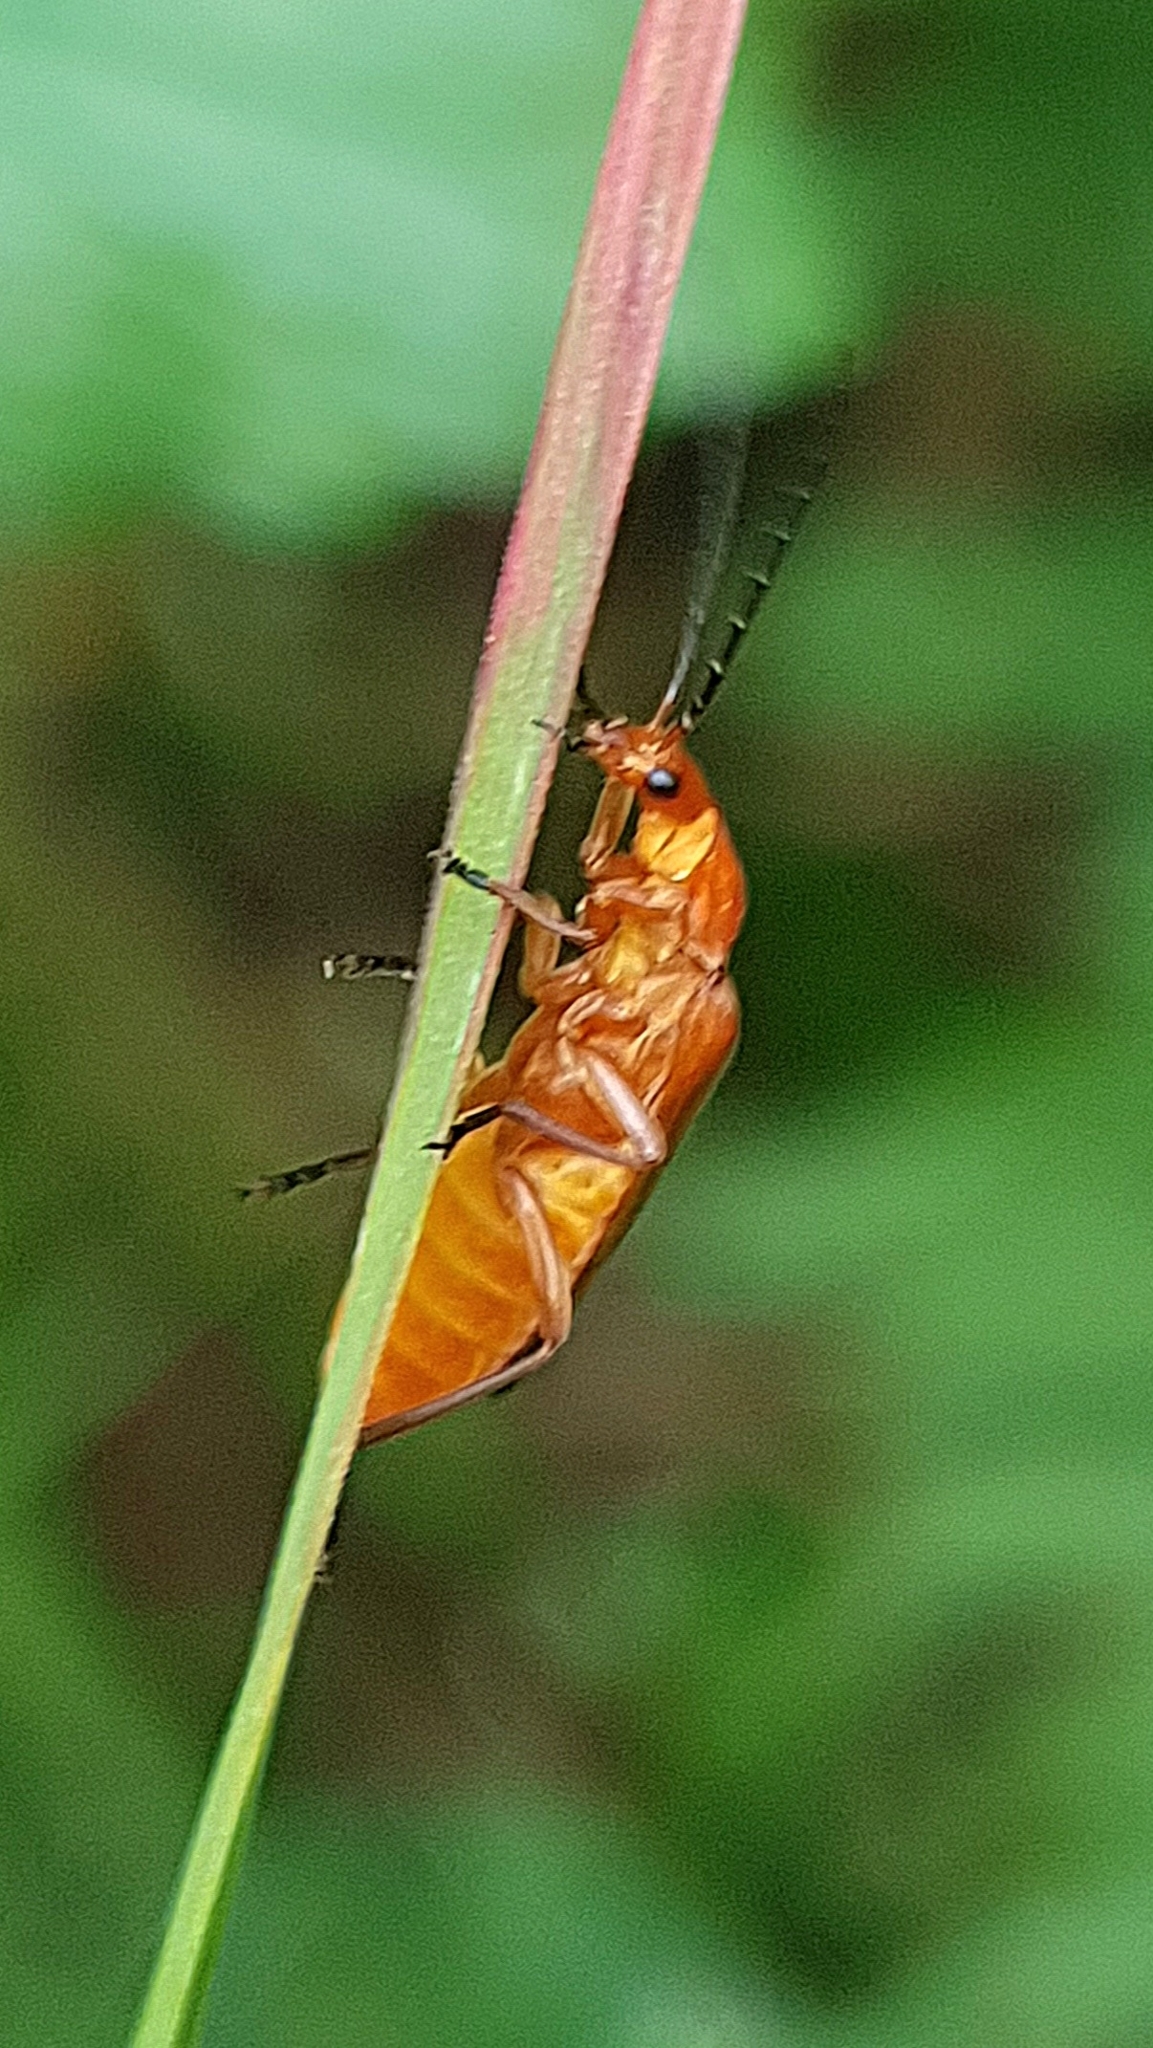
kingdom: Animalia
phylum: Arthropoda
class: Insecta
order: Coleoptera
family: Cantharidae
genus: Rhagonycha
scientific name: Rhagonycha fulva
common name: Common red soldier beetle
